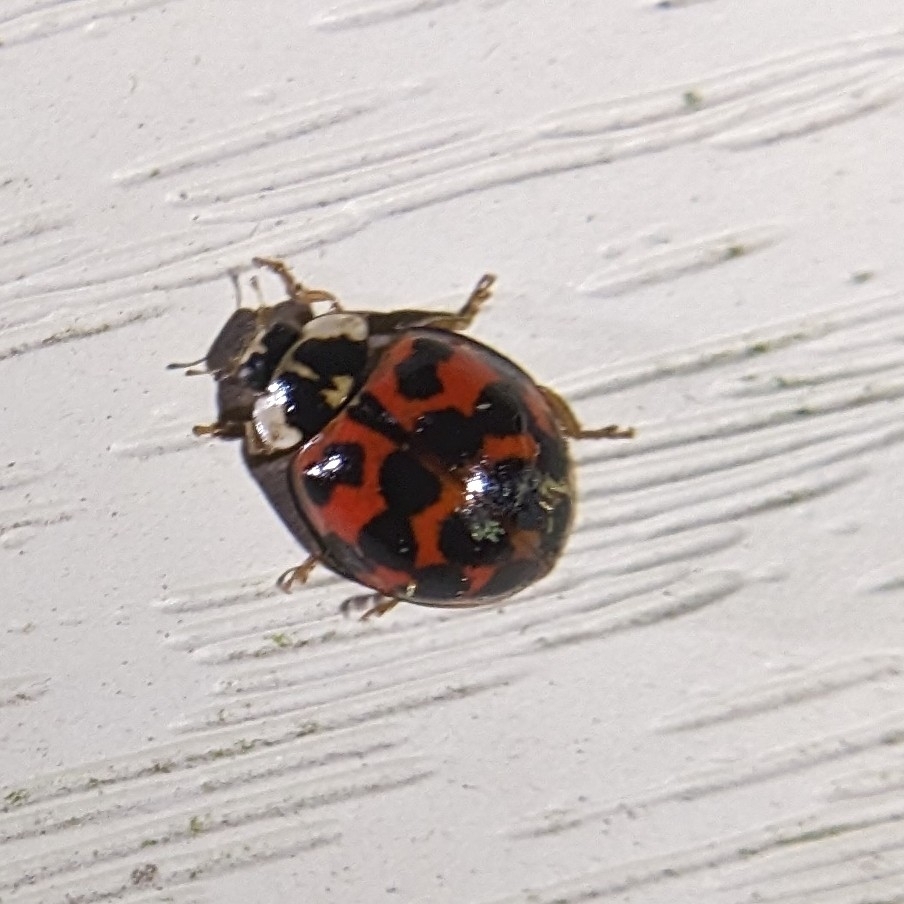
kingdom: Animalia
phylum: Arthropoda
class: Insecta
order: Coleoptera
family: Coccinellidae
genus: Harmonia
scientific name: Harmonia axyridis
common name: Harlequin ladybird
